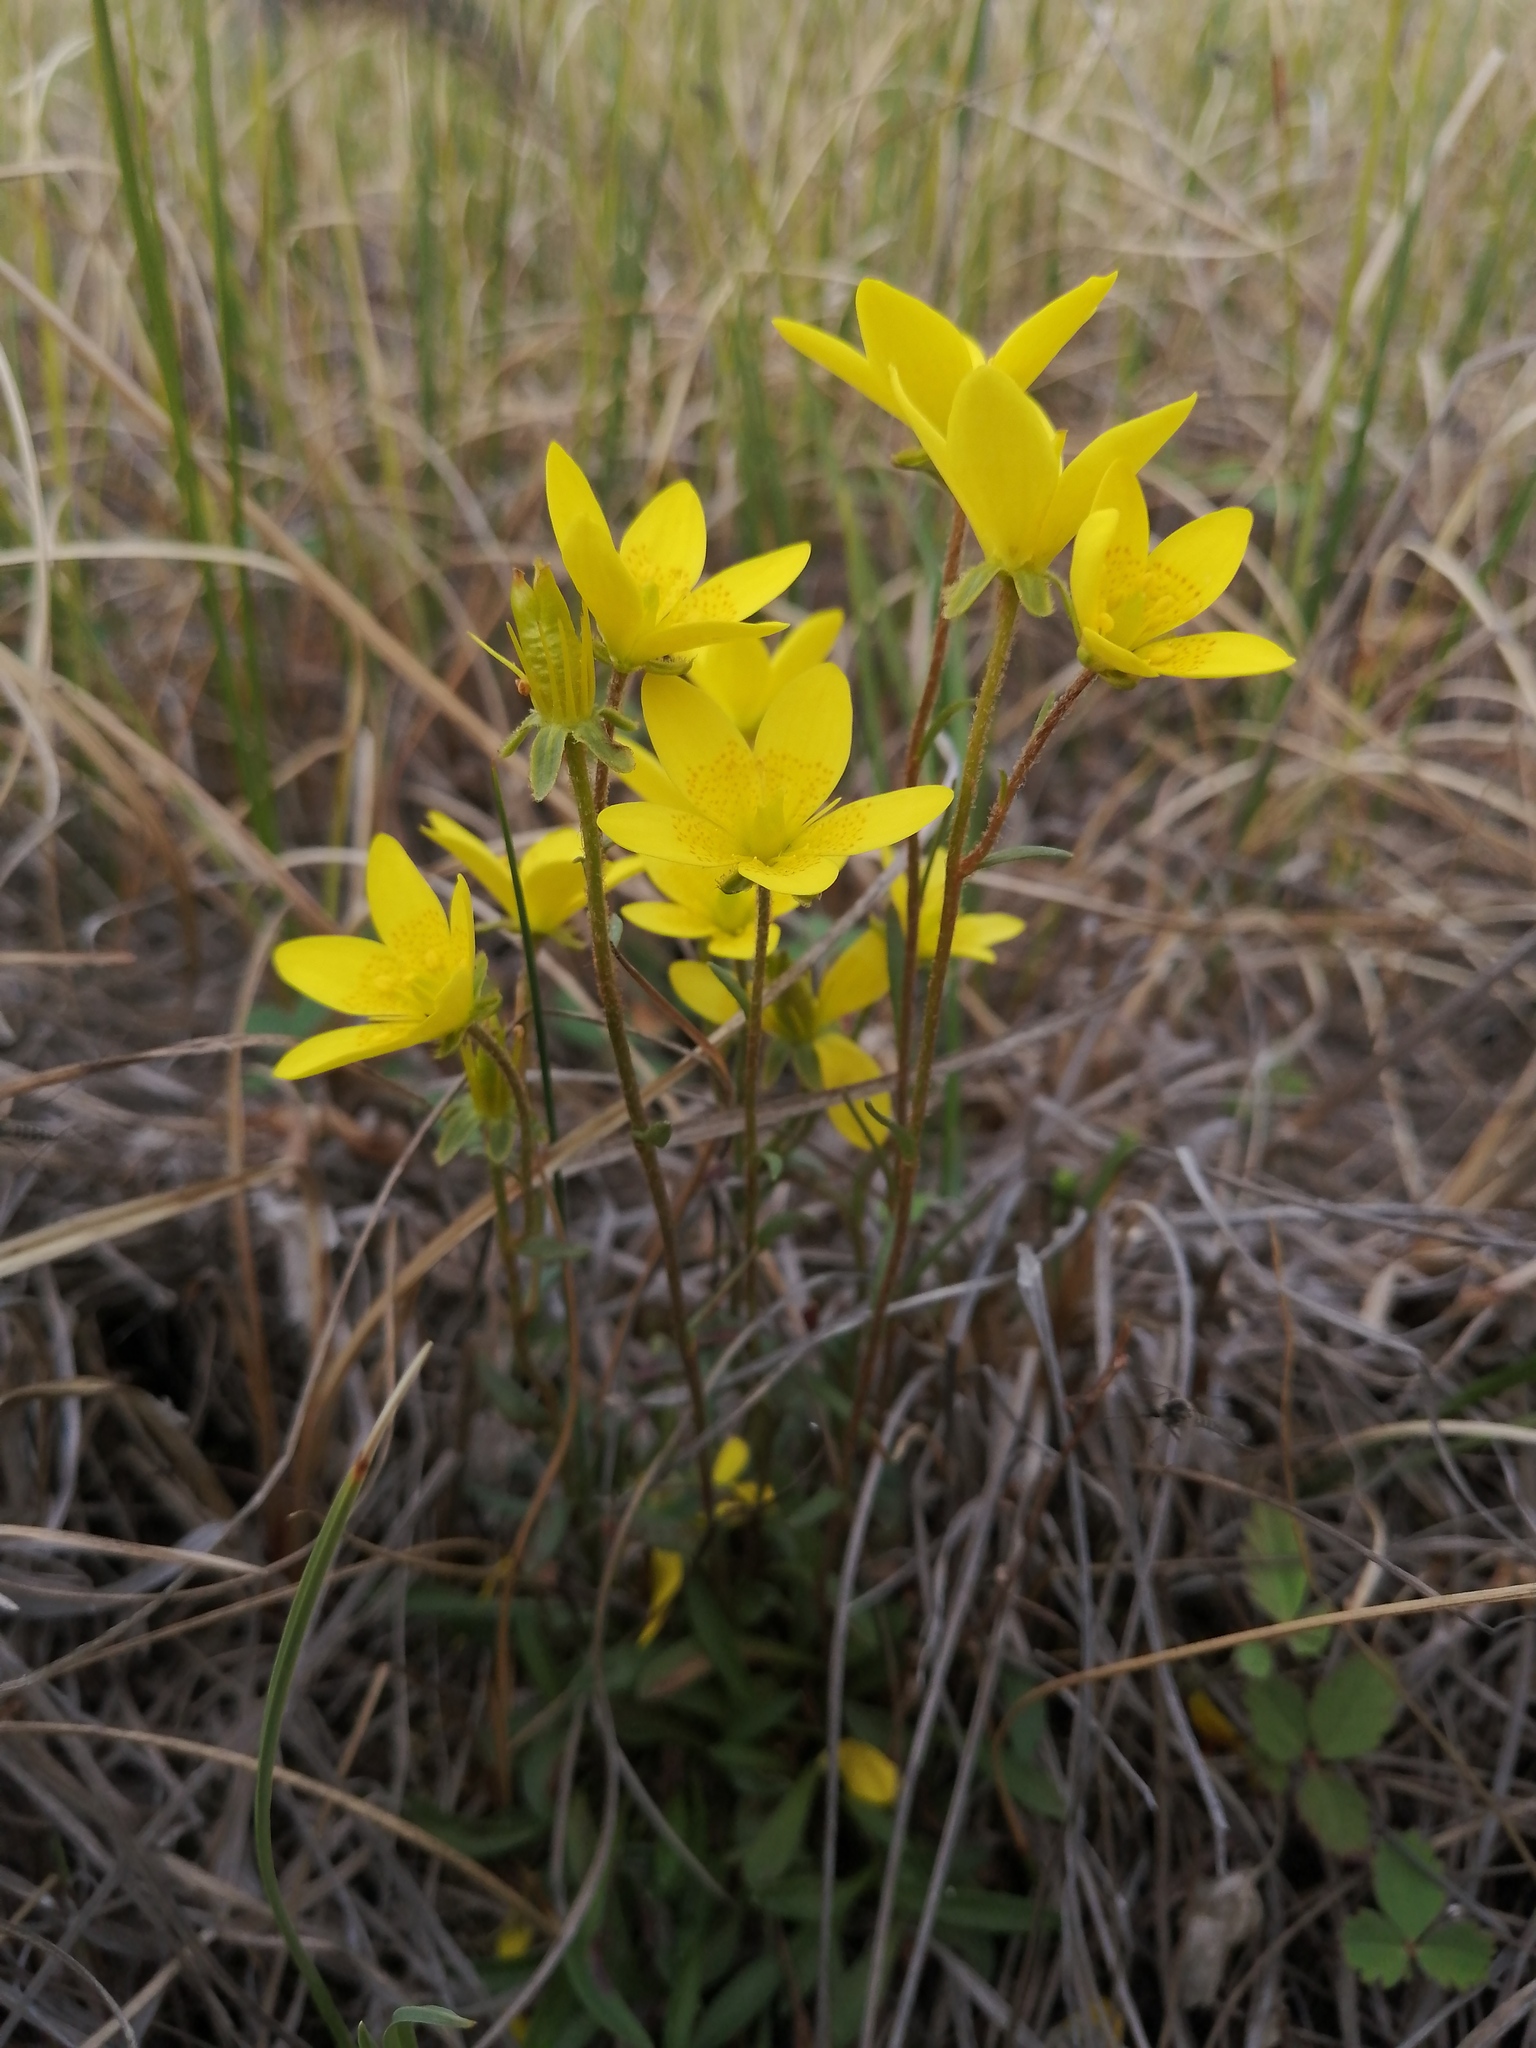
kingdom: Plantae
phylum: Tracheophyta
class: Magnoliopsida
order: Saxifragales
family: Saxifragaceae
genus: Saxifraga
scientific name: Saxifraga hirculus
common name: Yellow marsh saxifrage
